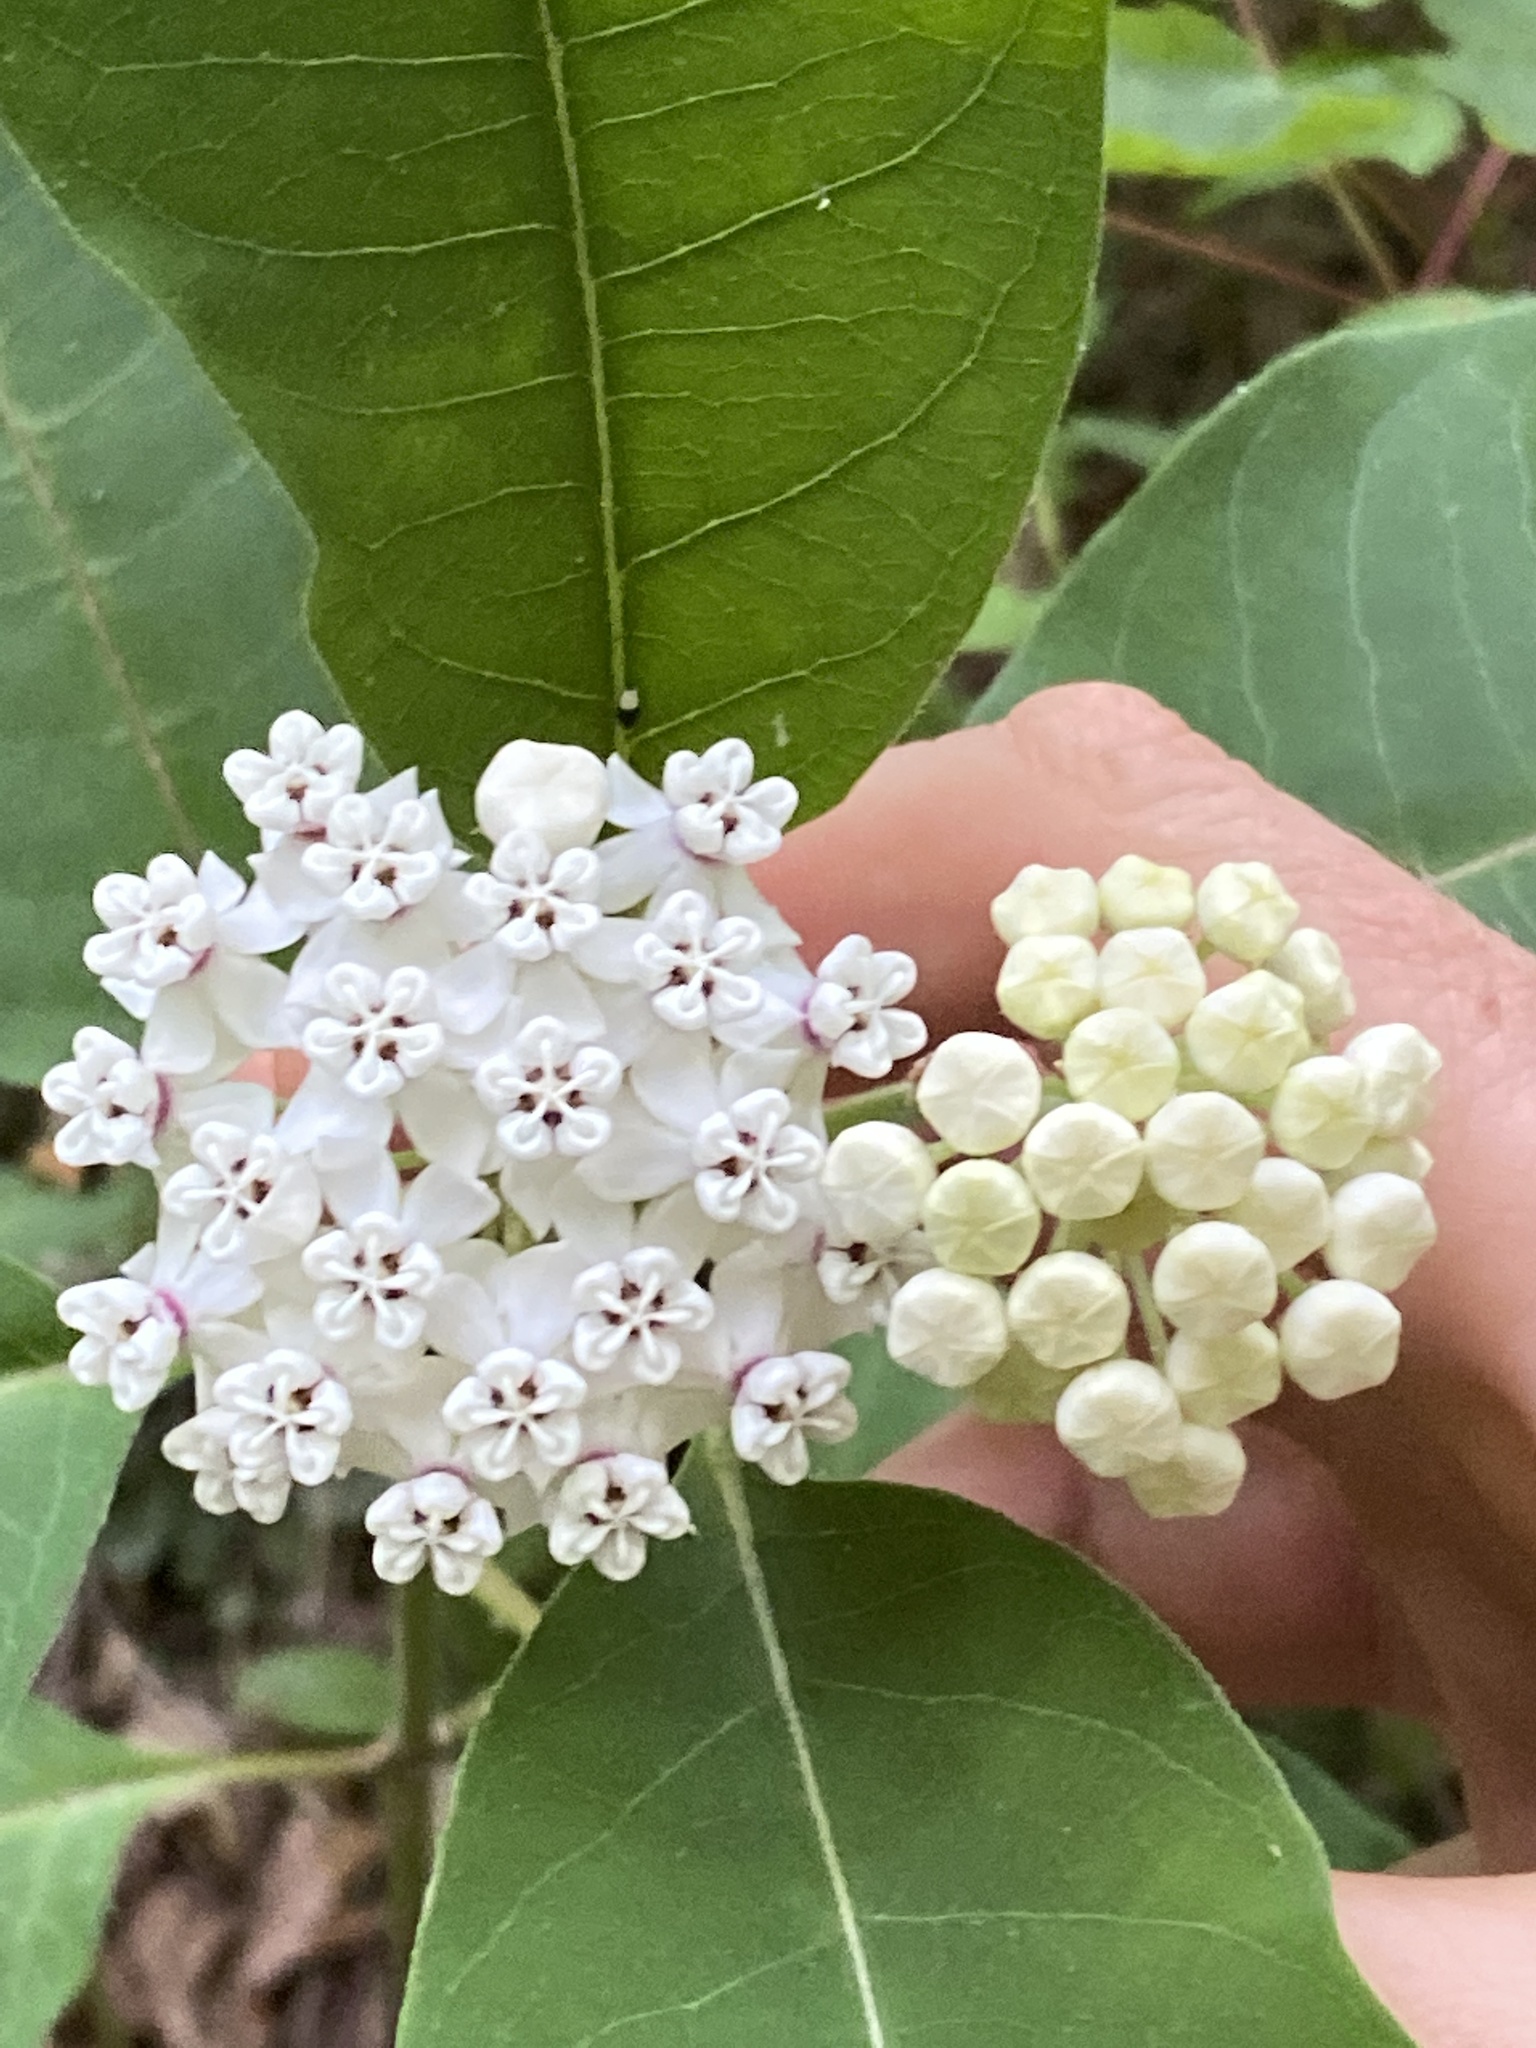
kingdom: Plantae
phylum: Tracheophyta
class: Magnoliopsida
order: Gentianales
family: Apocynaceae
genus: Asclepias
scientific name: Asclepias variegata
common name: Variegated milkweed
